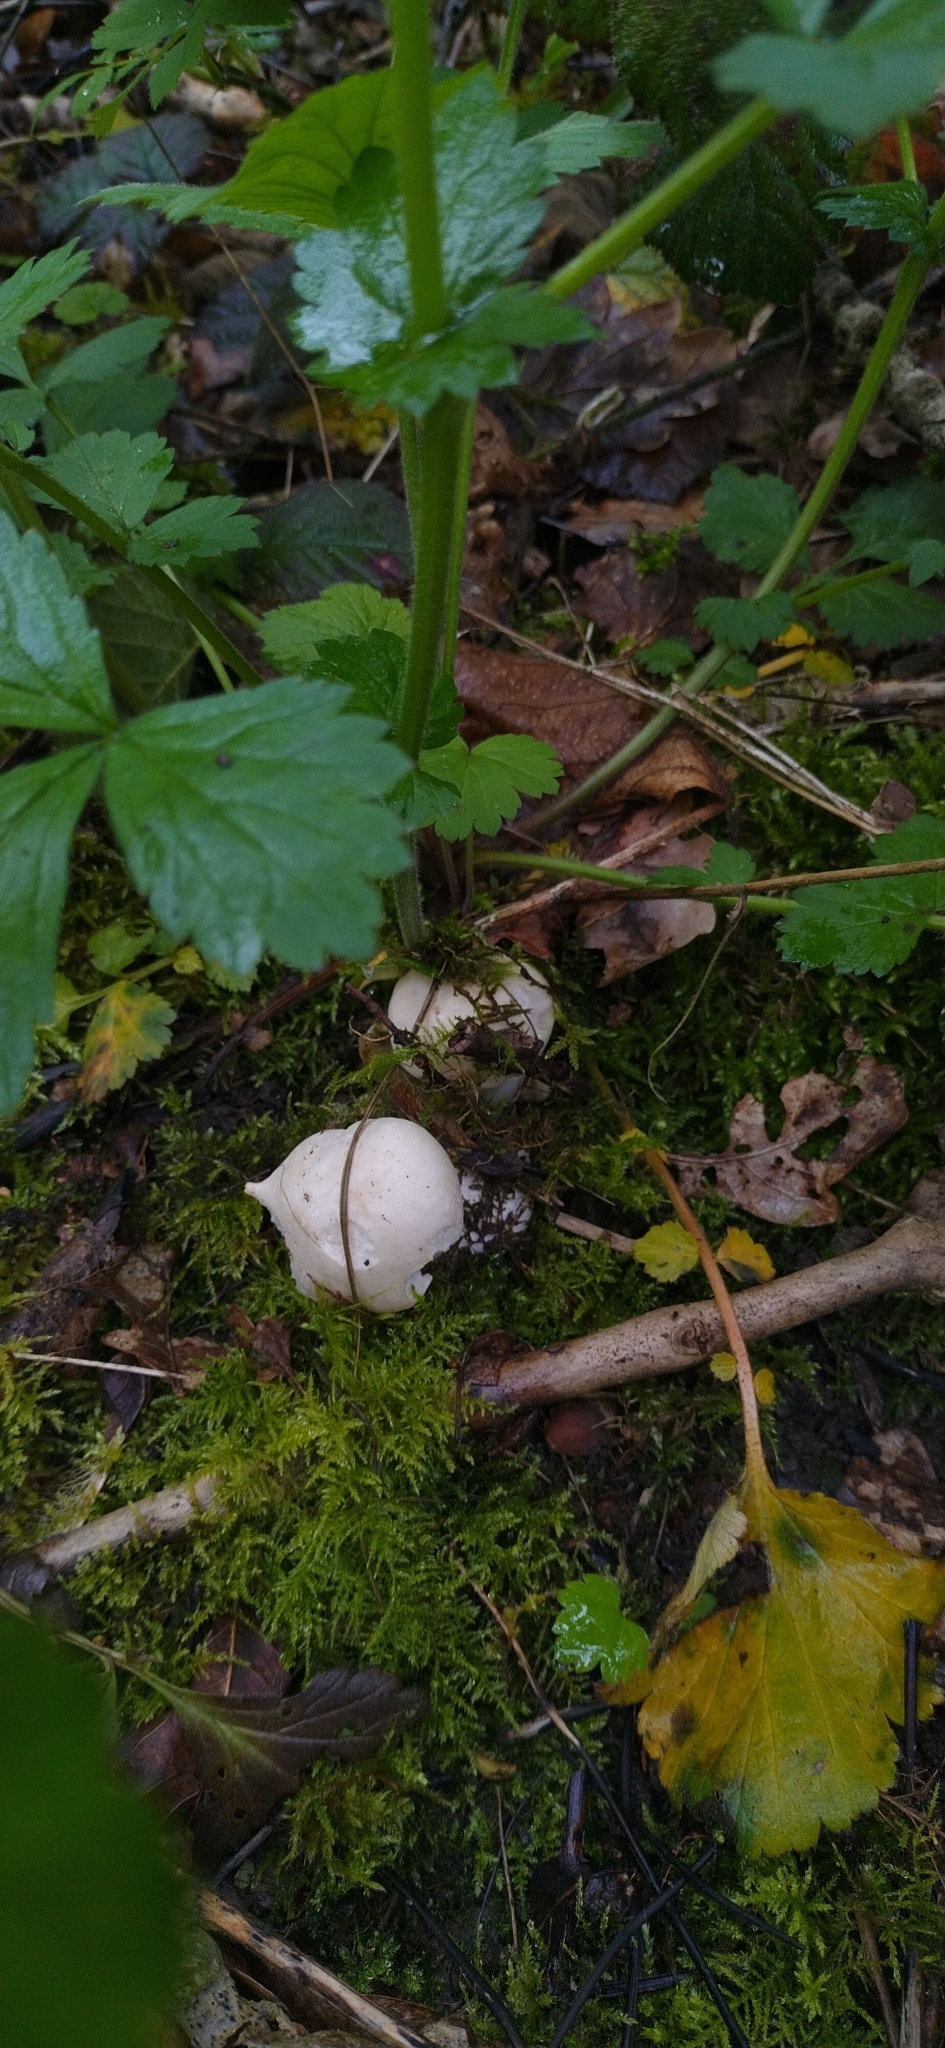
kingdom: Fungi
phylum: Basidiomycota
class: Agaricomycetes
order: Agaricales
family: Lycoperdaceae
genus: Lycoperdon
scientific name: Lycoperdon perlatum
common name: Common puffball
